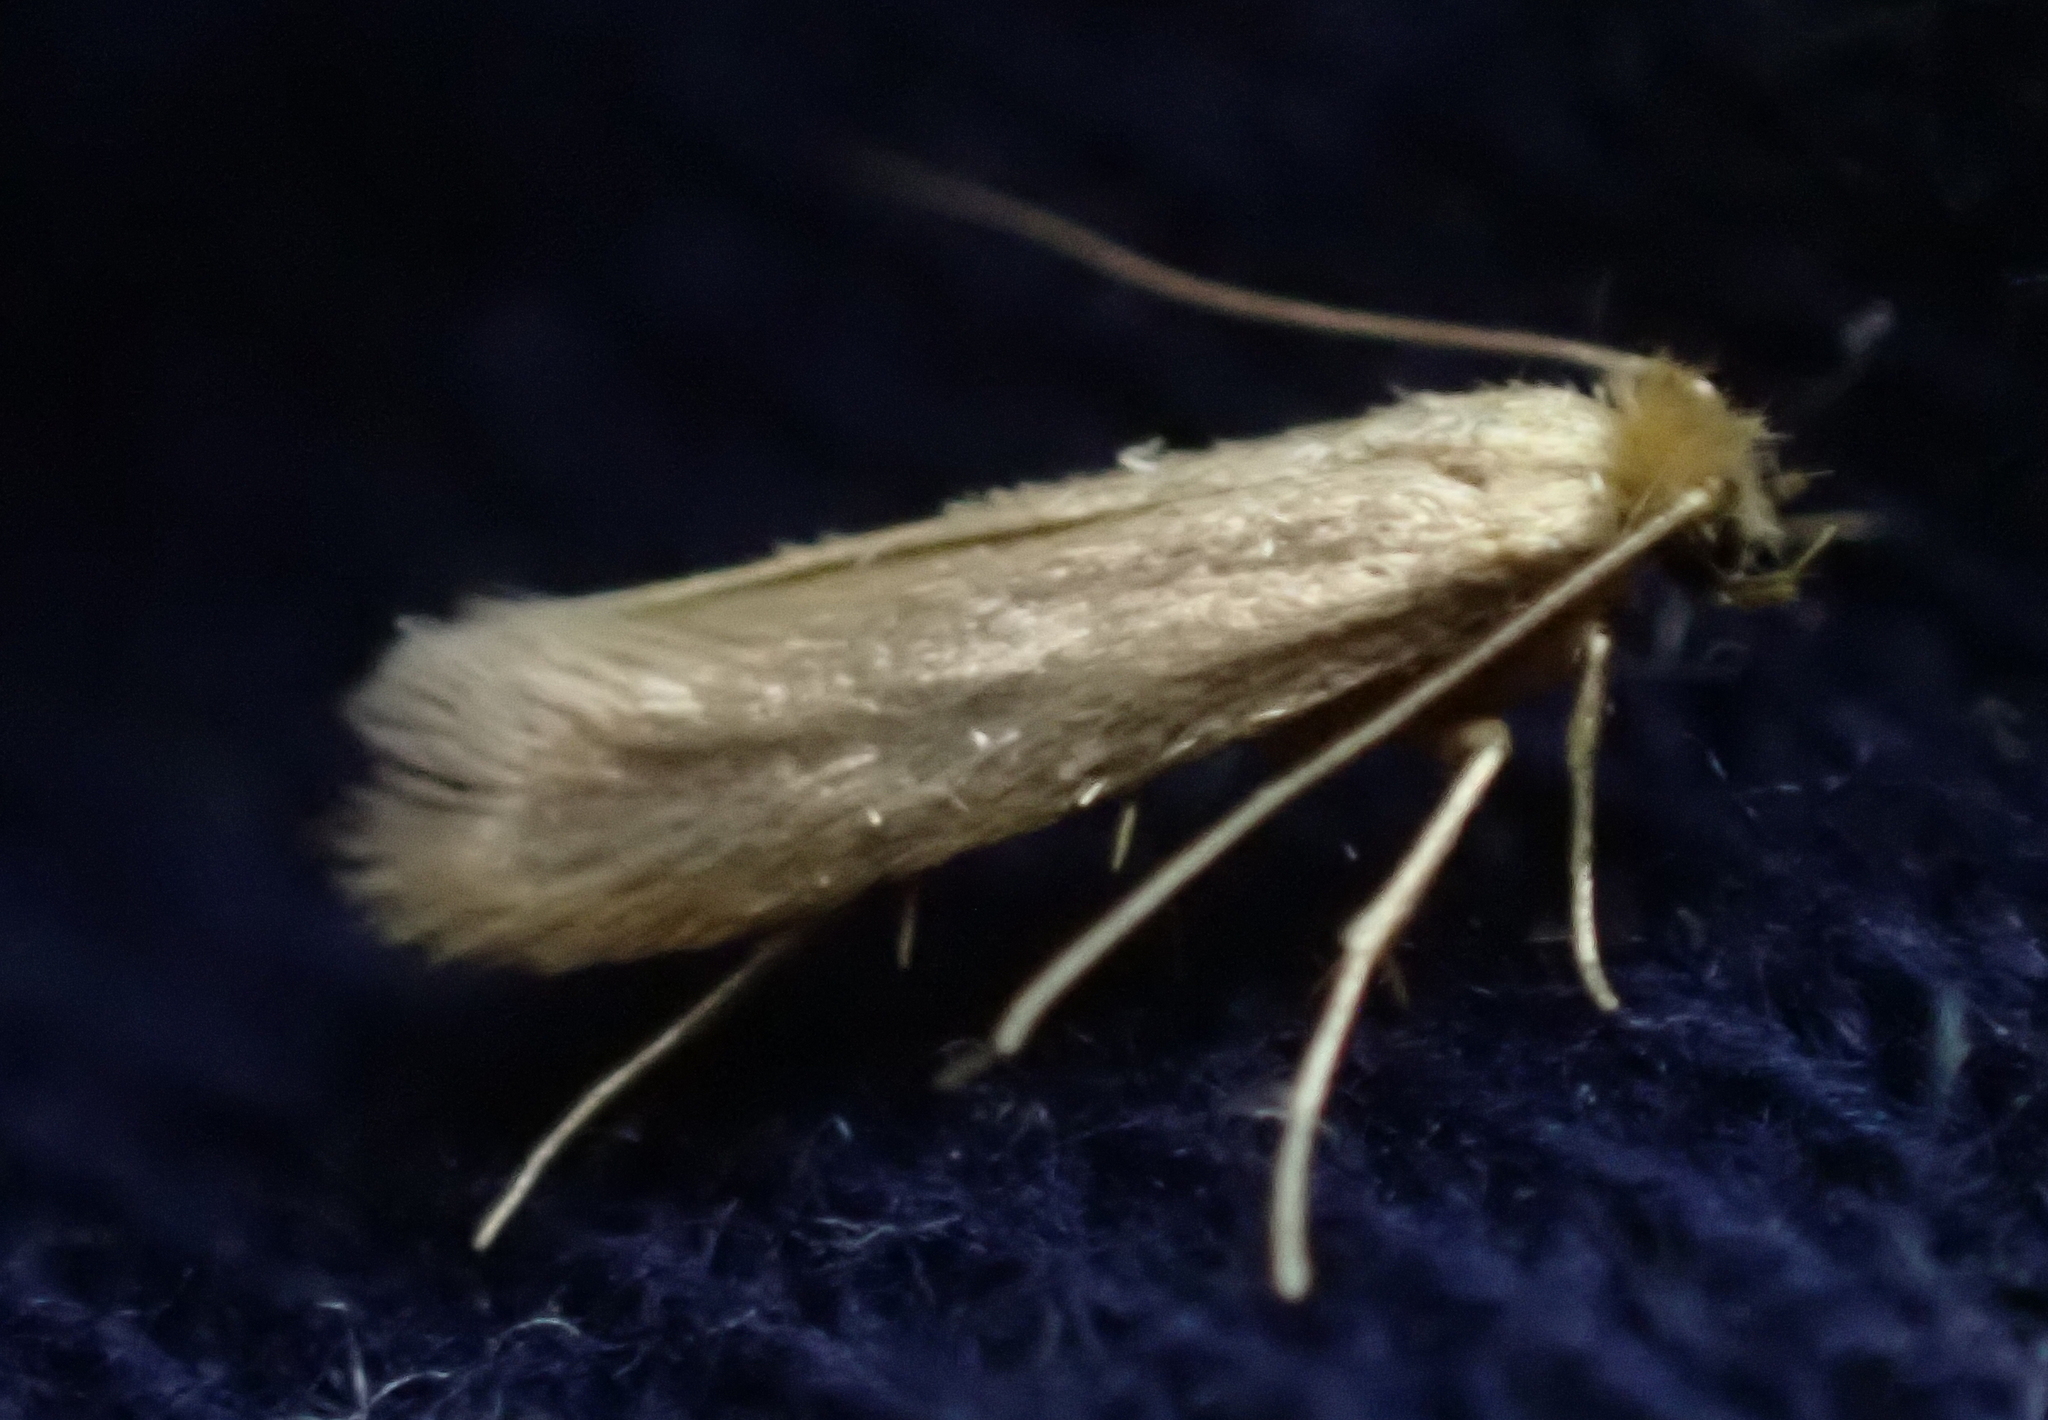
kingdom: Animalia
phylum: Arthropoda
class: Insecta
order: Lepidoptera
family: Tineidae
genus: Tineola
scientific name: Tineola bisselliella
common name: Webbing clothes moth
